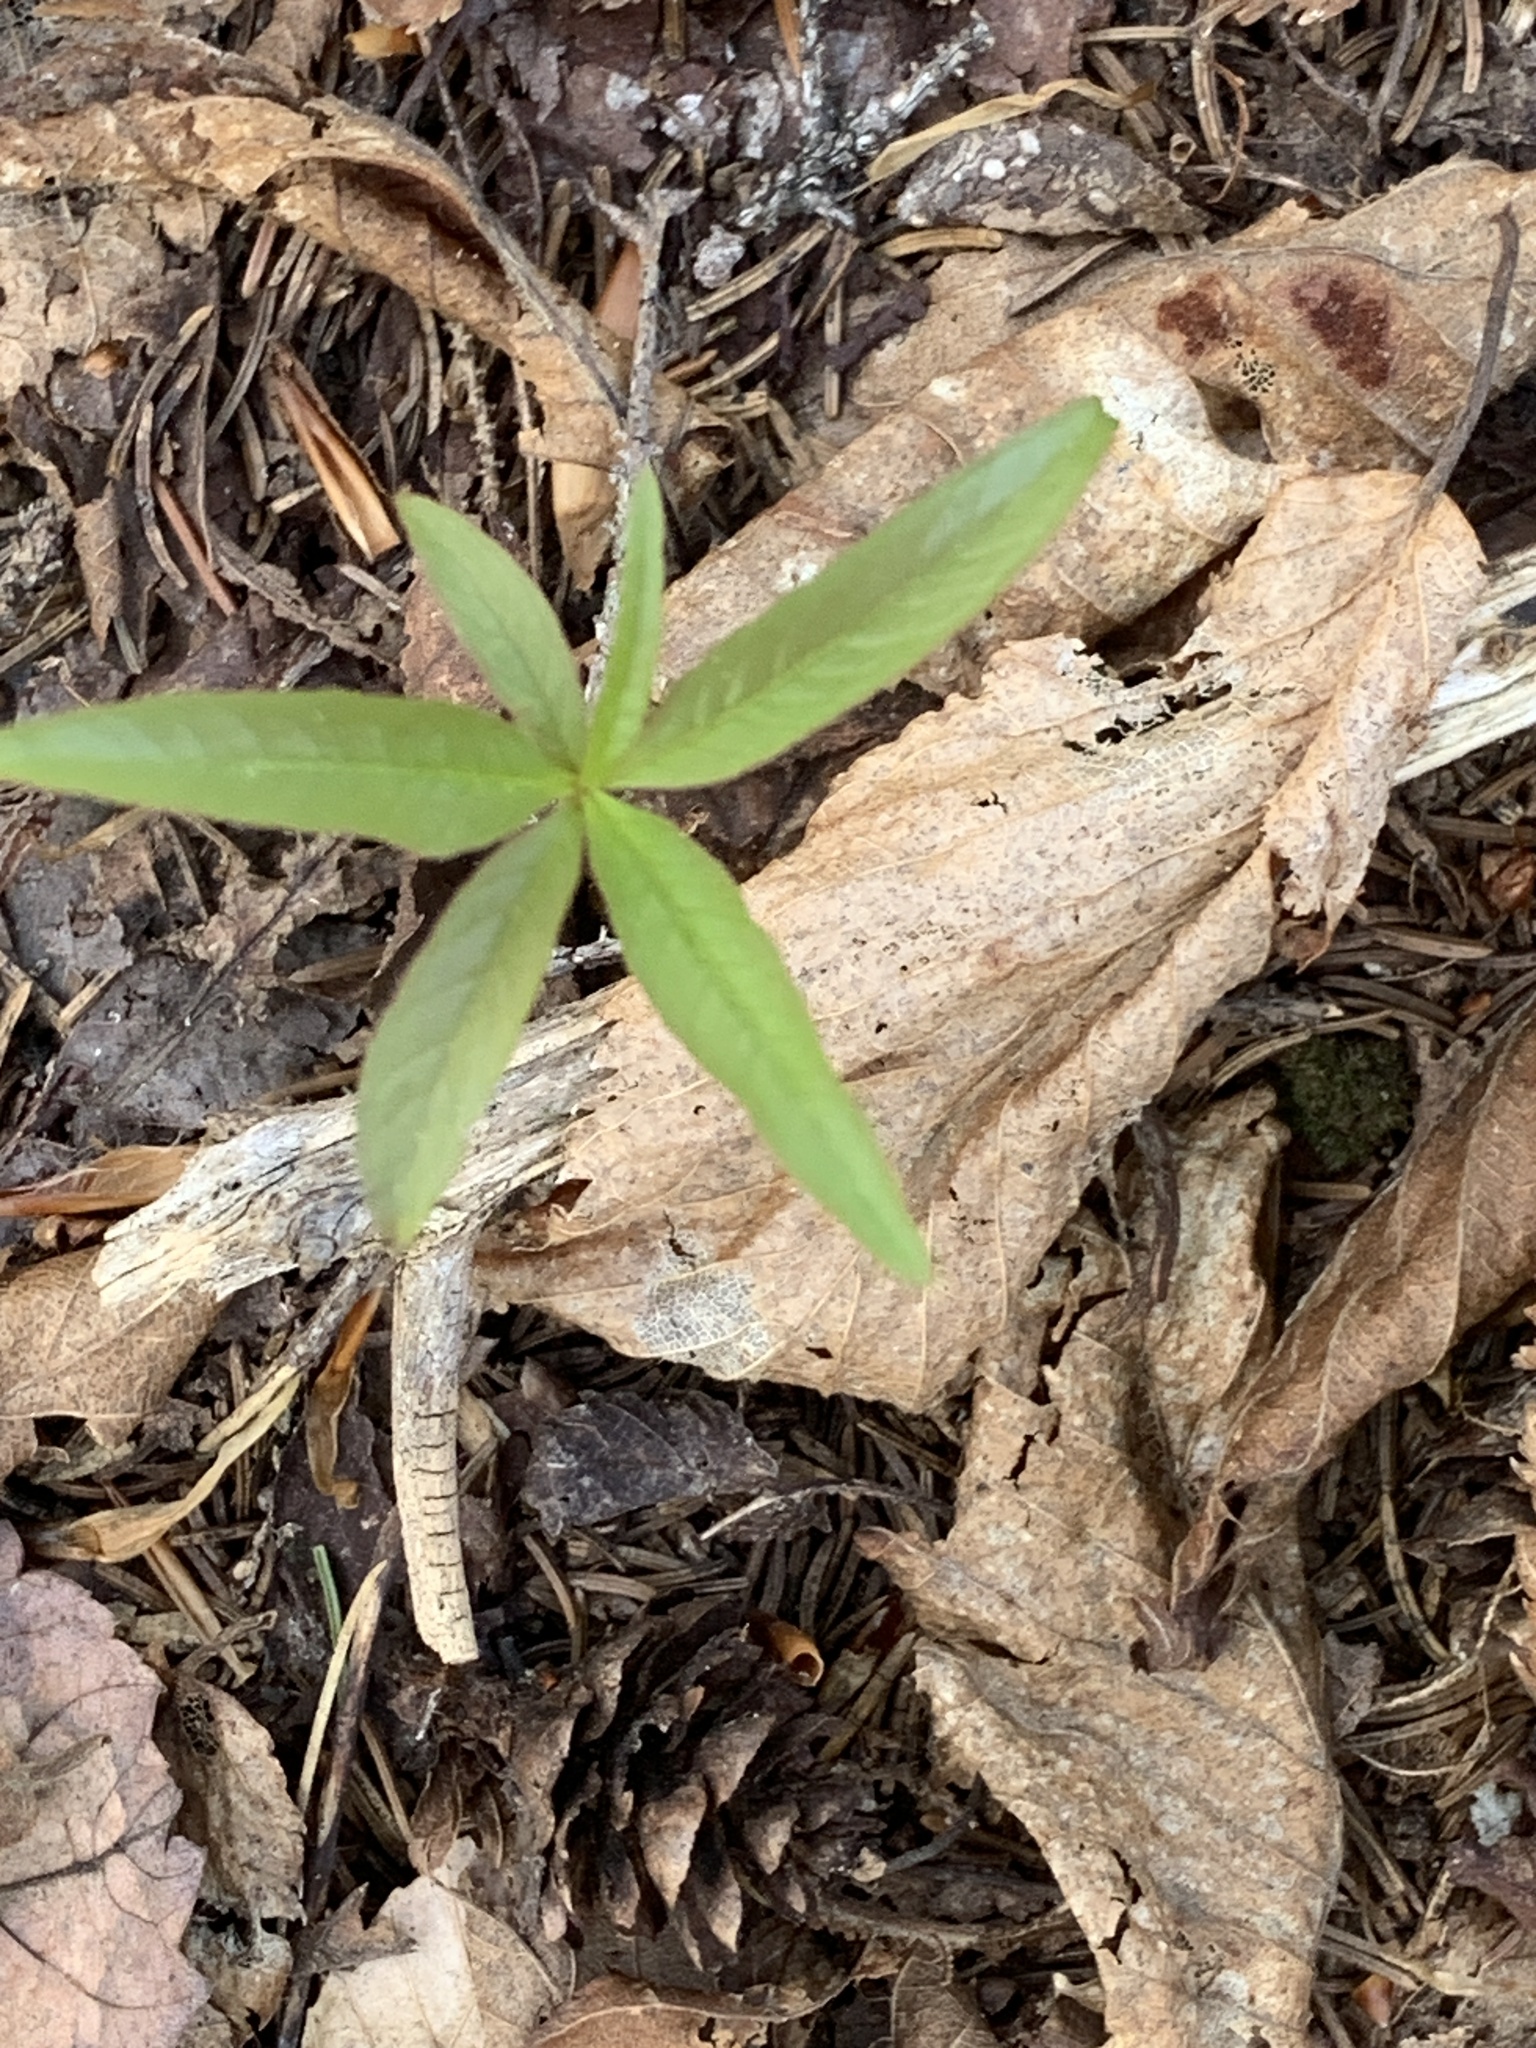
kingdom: Plantae
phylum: Tracheophyta
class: Magnoliopsida
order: Ericales
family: Primulaceae
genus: Lysimachia
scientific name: Lysimachia borealis
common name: American starflower
